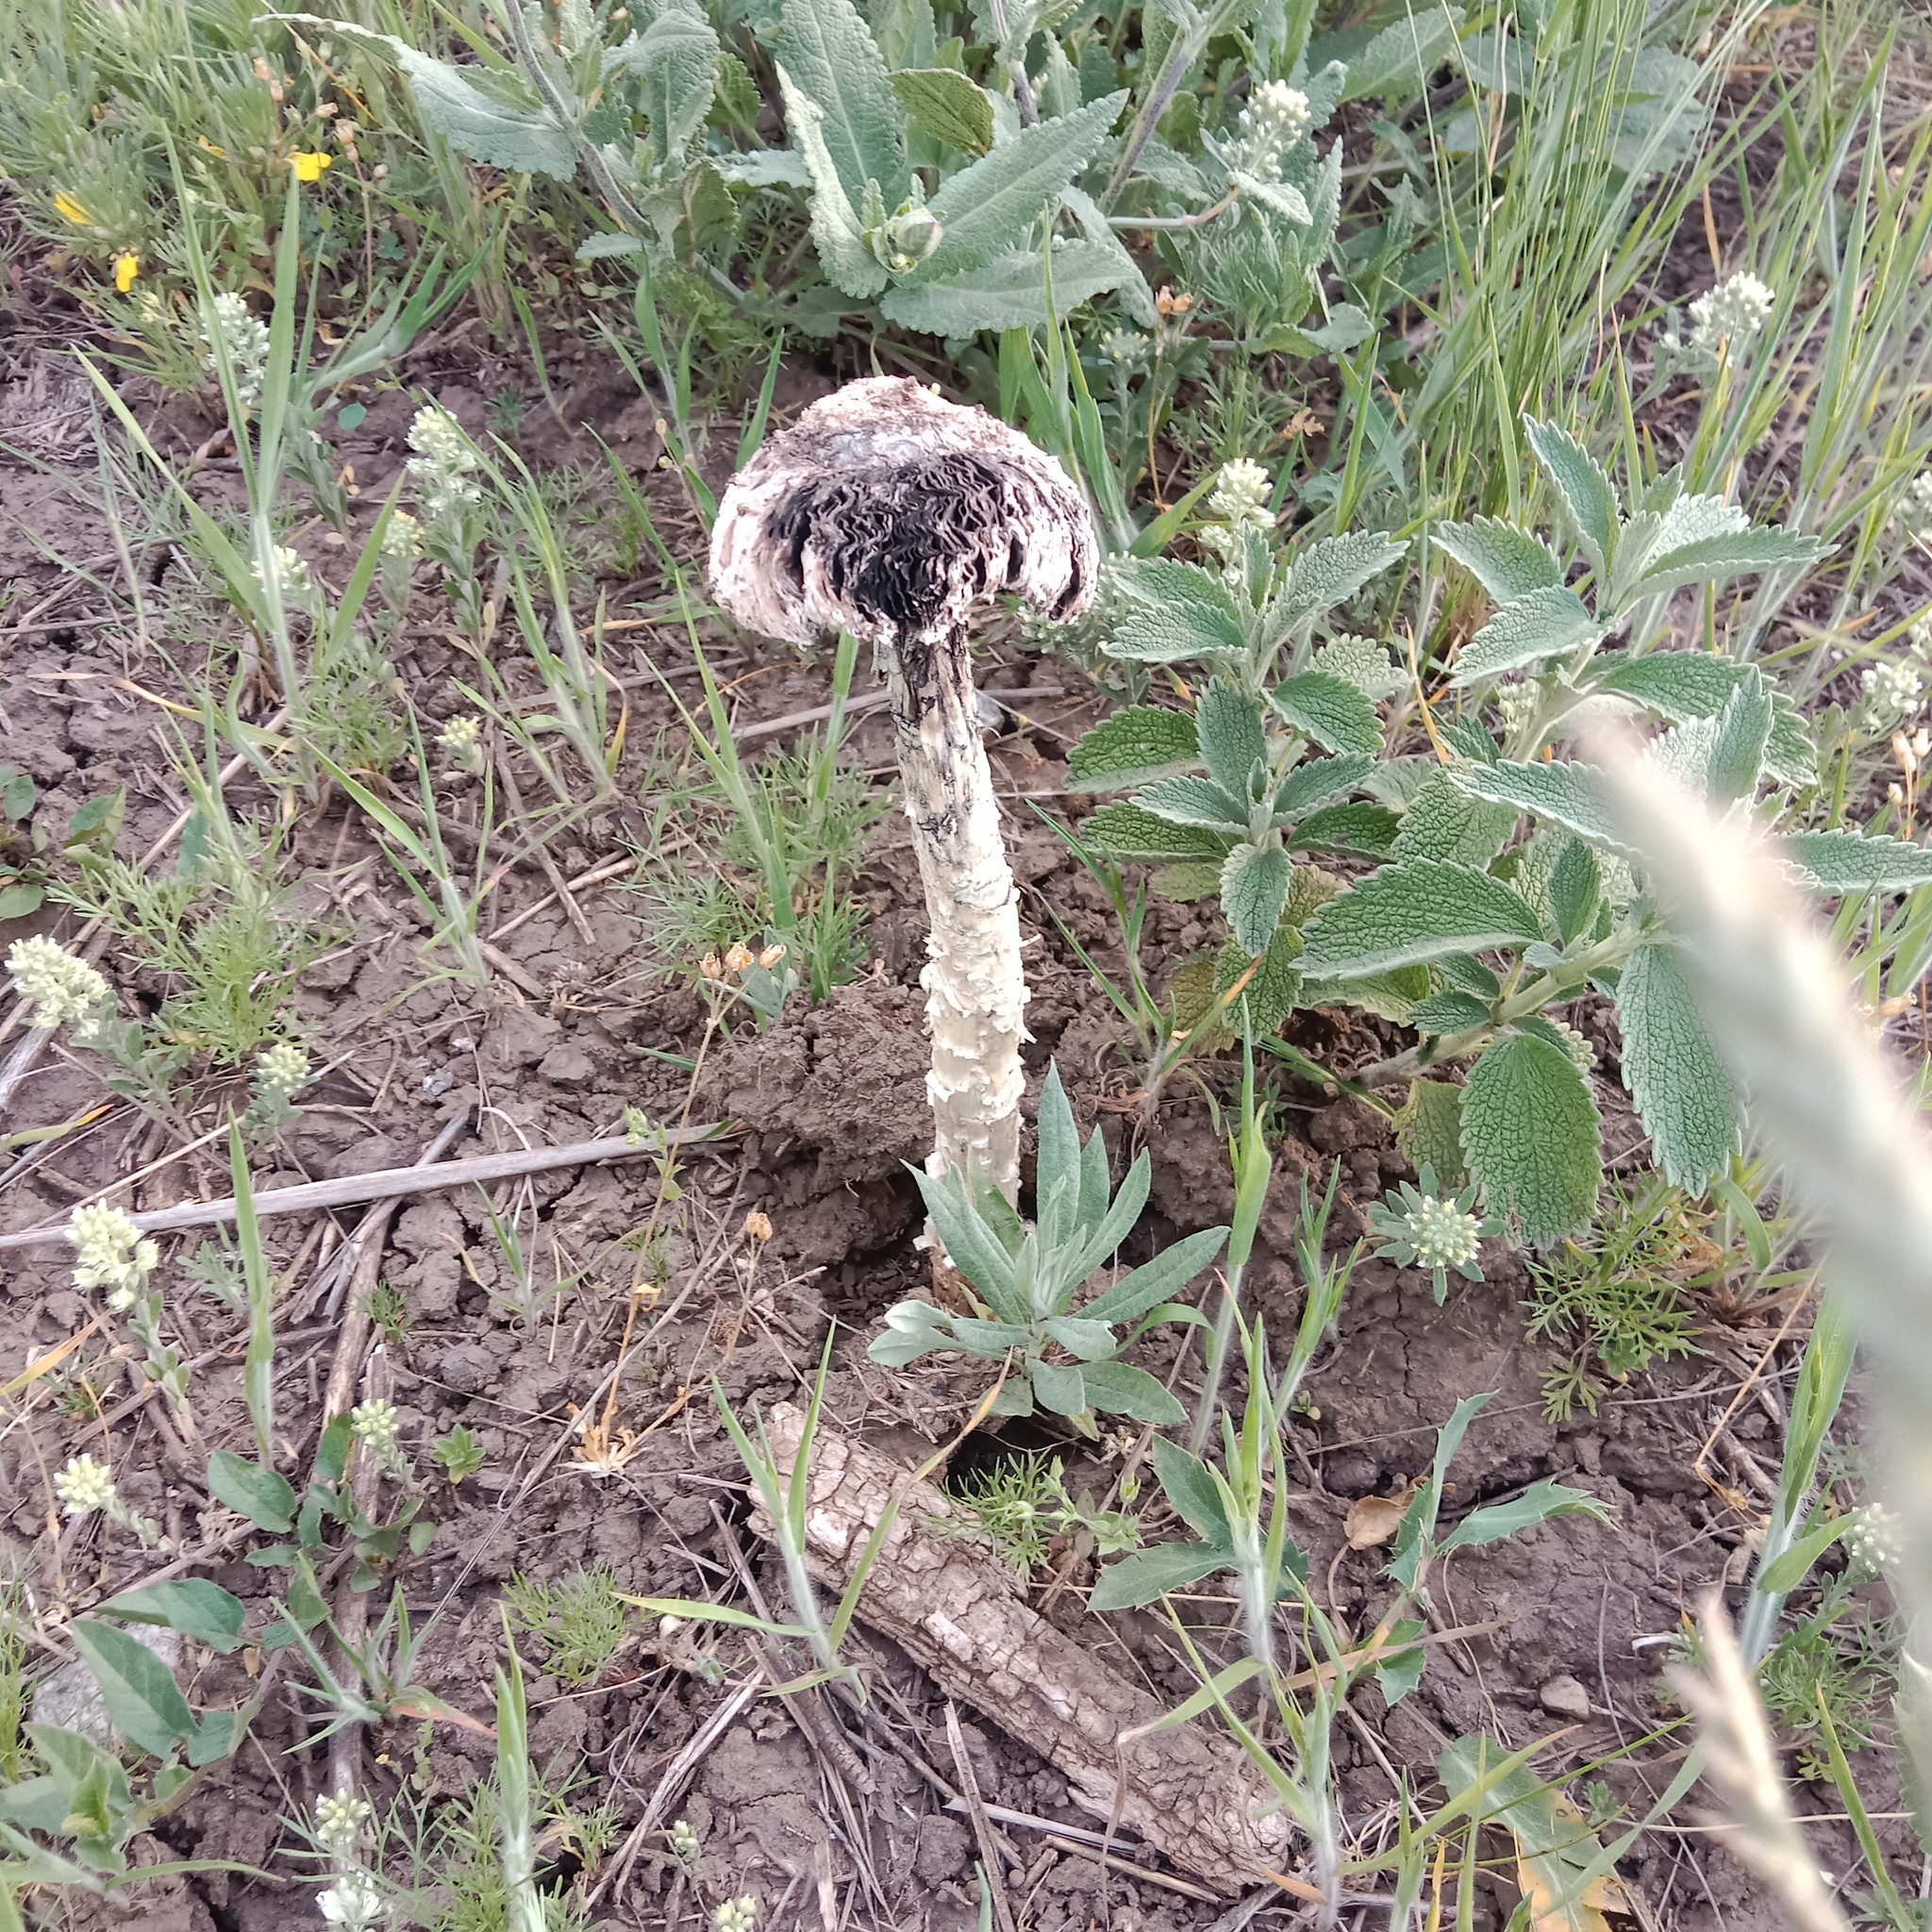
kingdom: Fungi
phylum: Basidiomycota
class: Agaricomycetes
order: Agaricales
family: Agaricaceae
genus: Montagnea
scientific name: Montagnea arenaria
